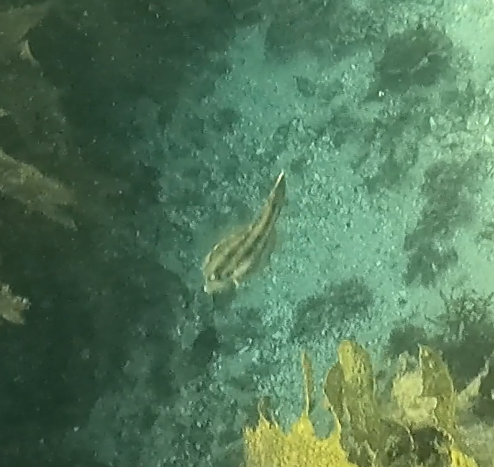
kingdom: Animalia
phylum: Chordata
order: Tetraodontiformes
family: Monacanthidae
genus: Meuschenia
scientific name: Meuschenia trachylepis
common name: Yellowfin leatherjacket
